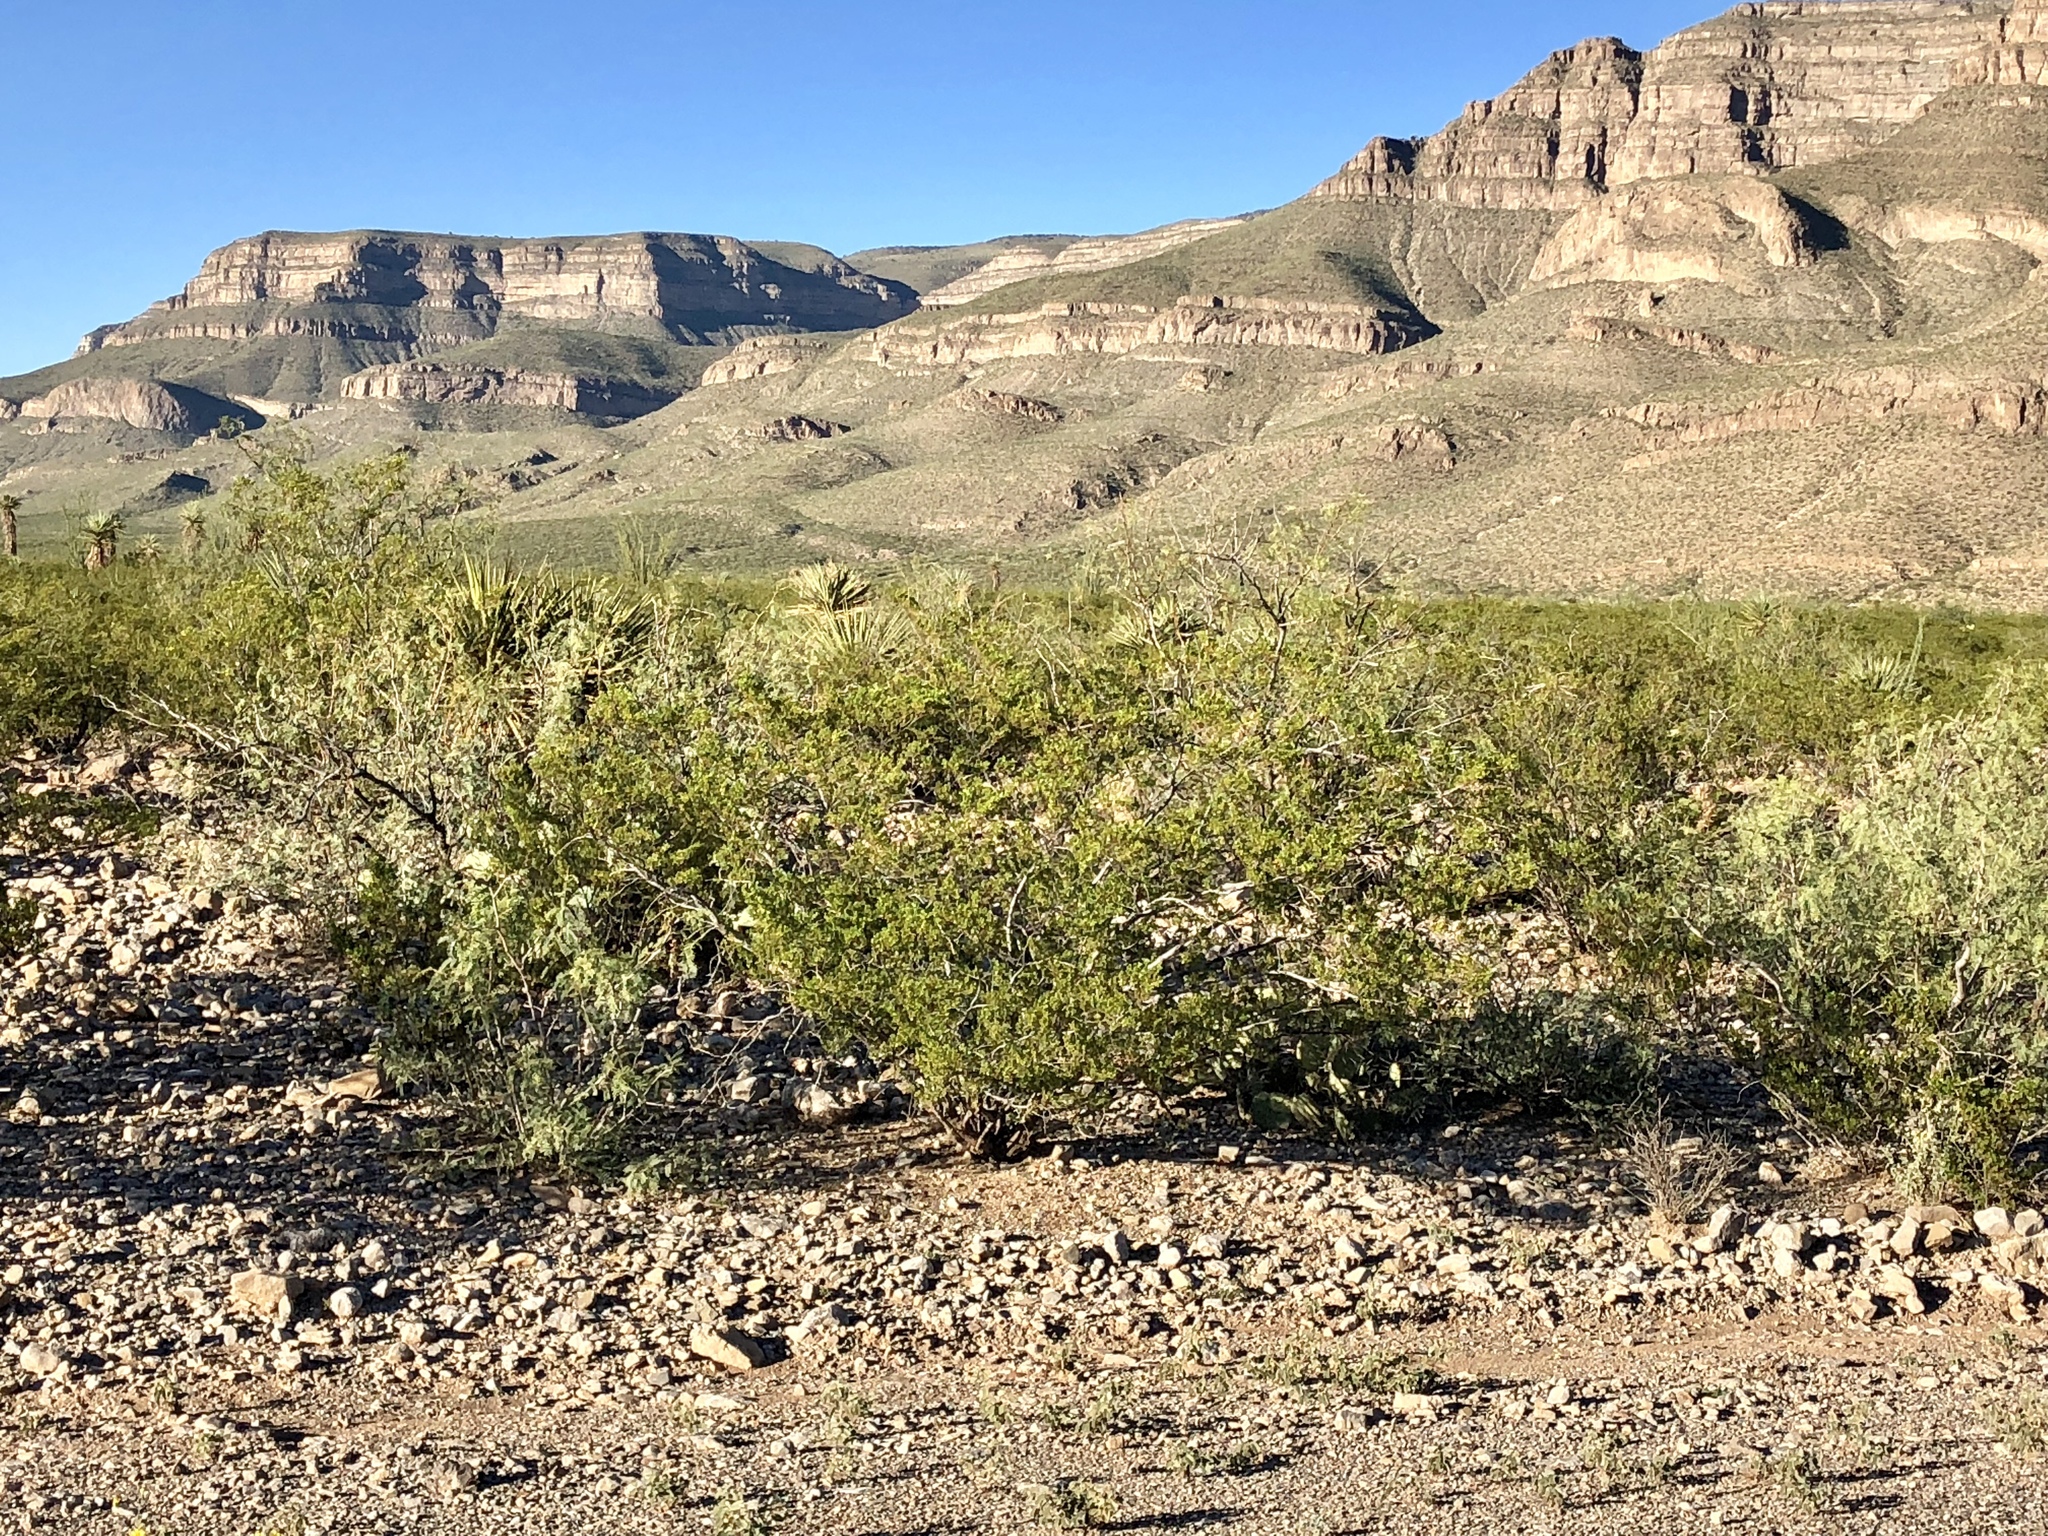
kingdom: Plantae
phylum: Tracheophyta
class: Magnoliopsida
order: Zygophyllales
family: Zygophyllaceae
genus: Larrea
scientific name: Larrea tridentata
